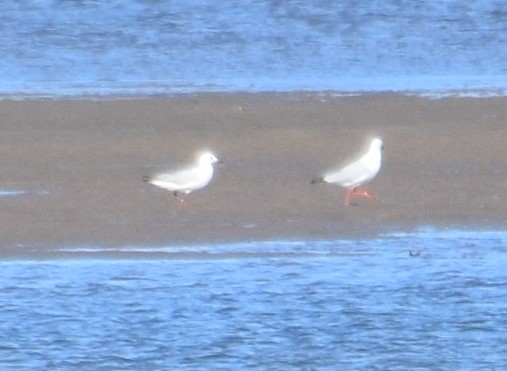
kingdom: Animalia
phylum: Chordata
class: Aves
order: Charadriiformes
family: Laridae
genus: Chroicocephalus
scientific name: Chroicocephalus novaehollandiae
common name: Silver gull
